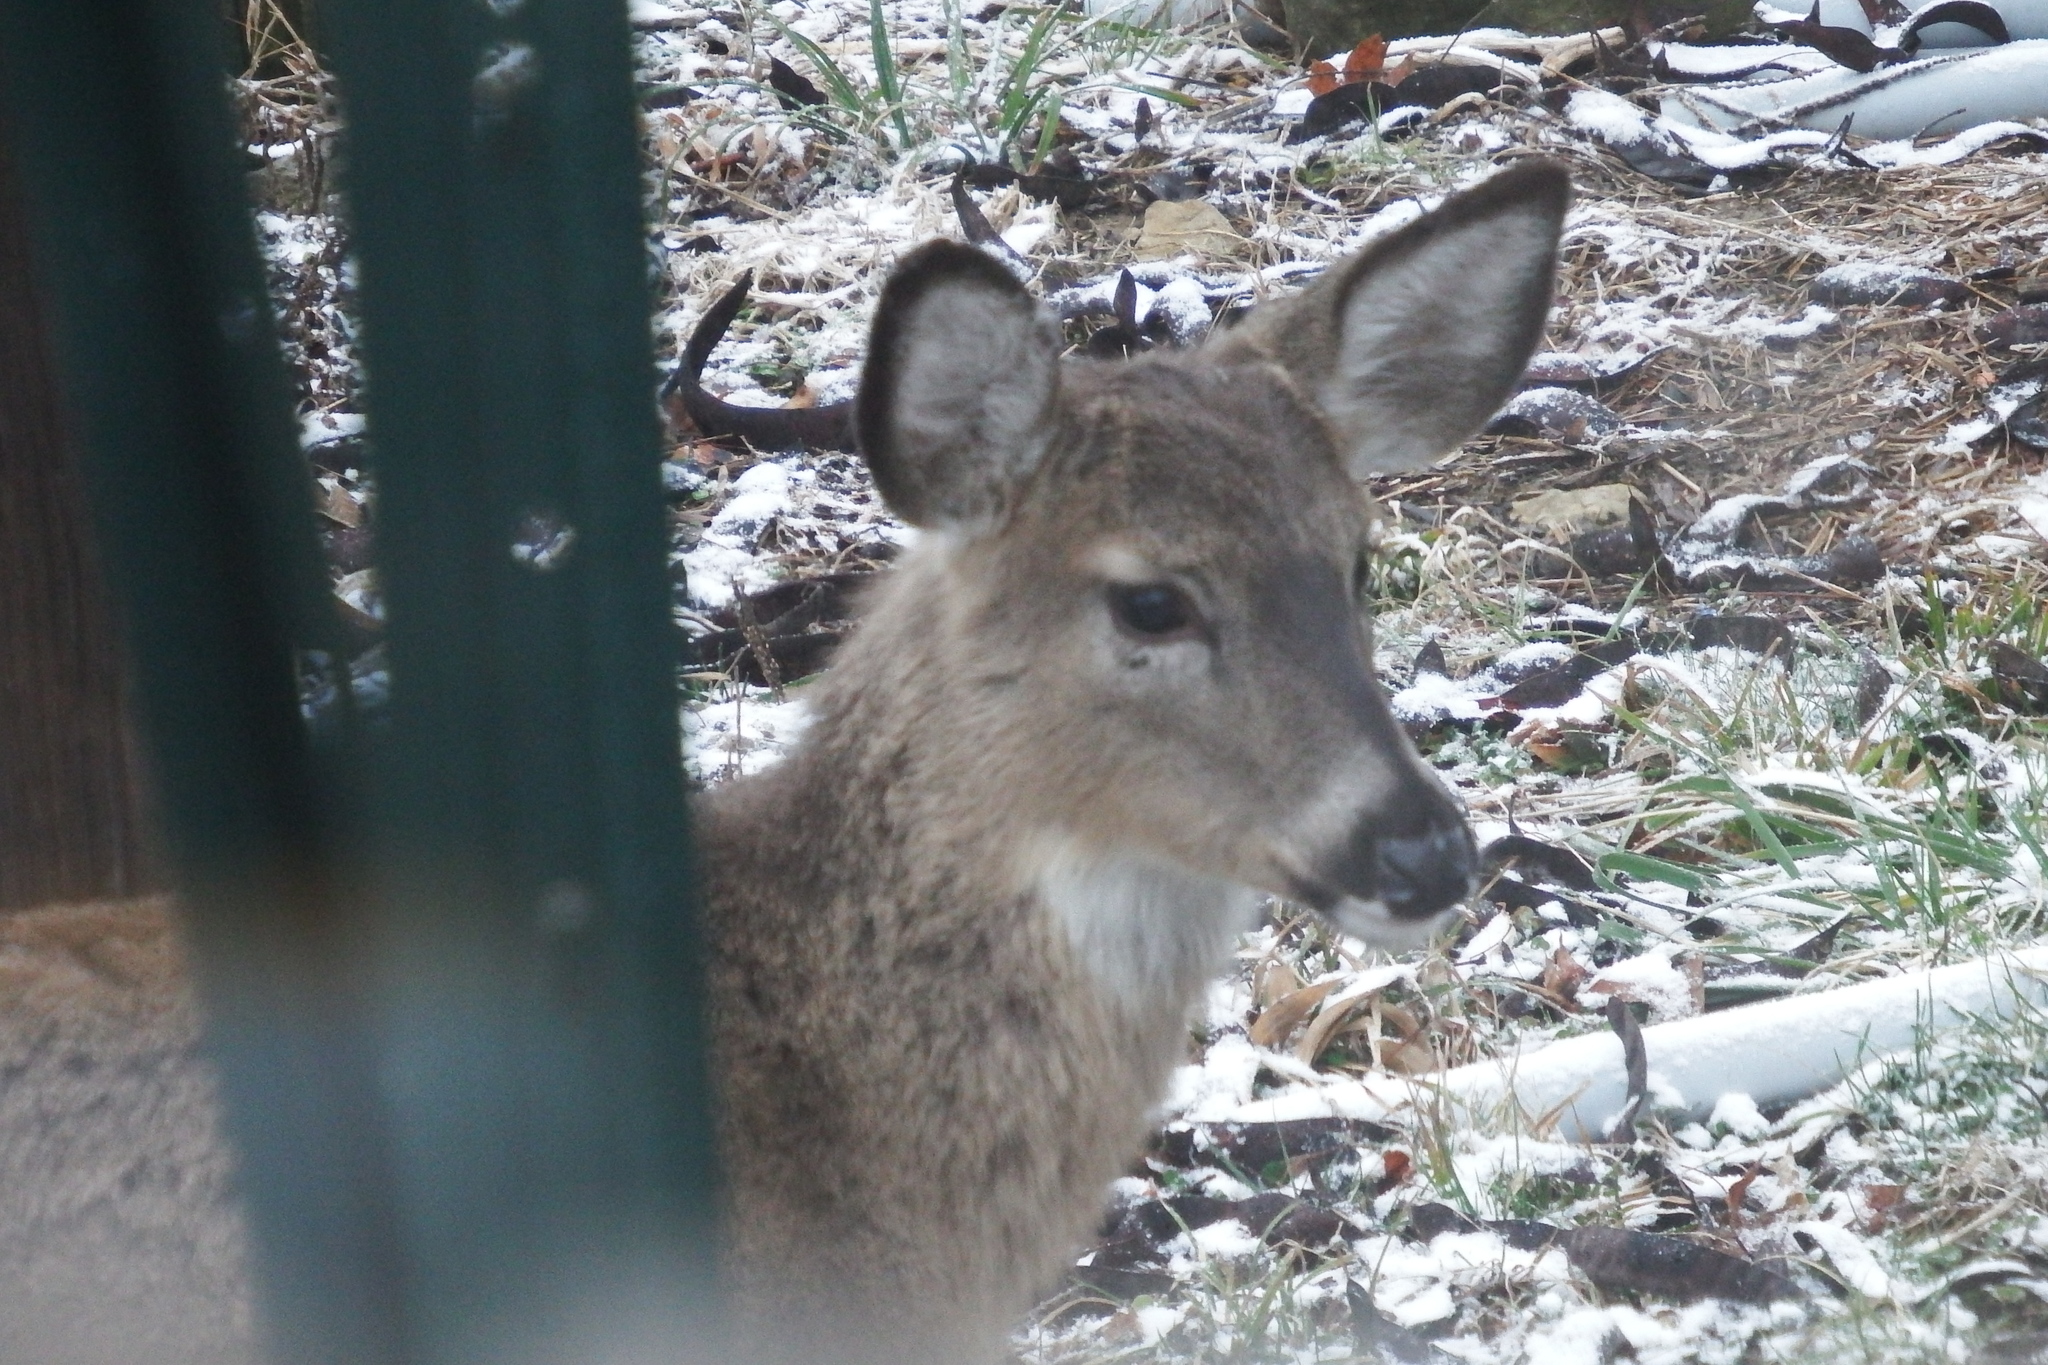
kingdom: Animalia
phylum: Chordata
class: Mammalia
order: Artiodactyla
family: Cervidae
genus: Odocoileus
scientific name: Odocoileus virginianus
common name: White-tailed deer
